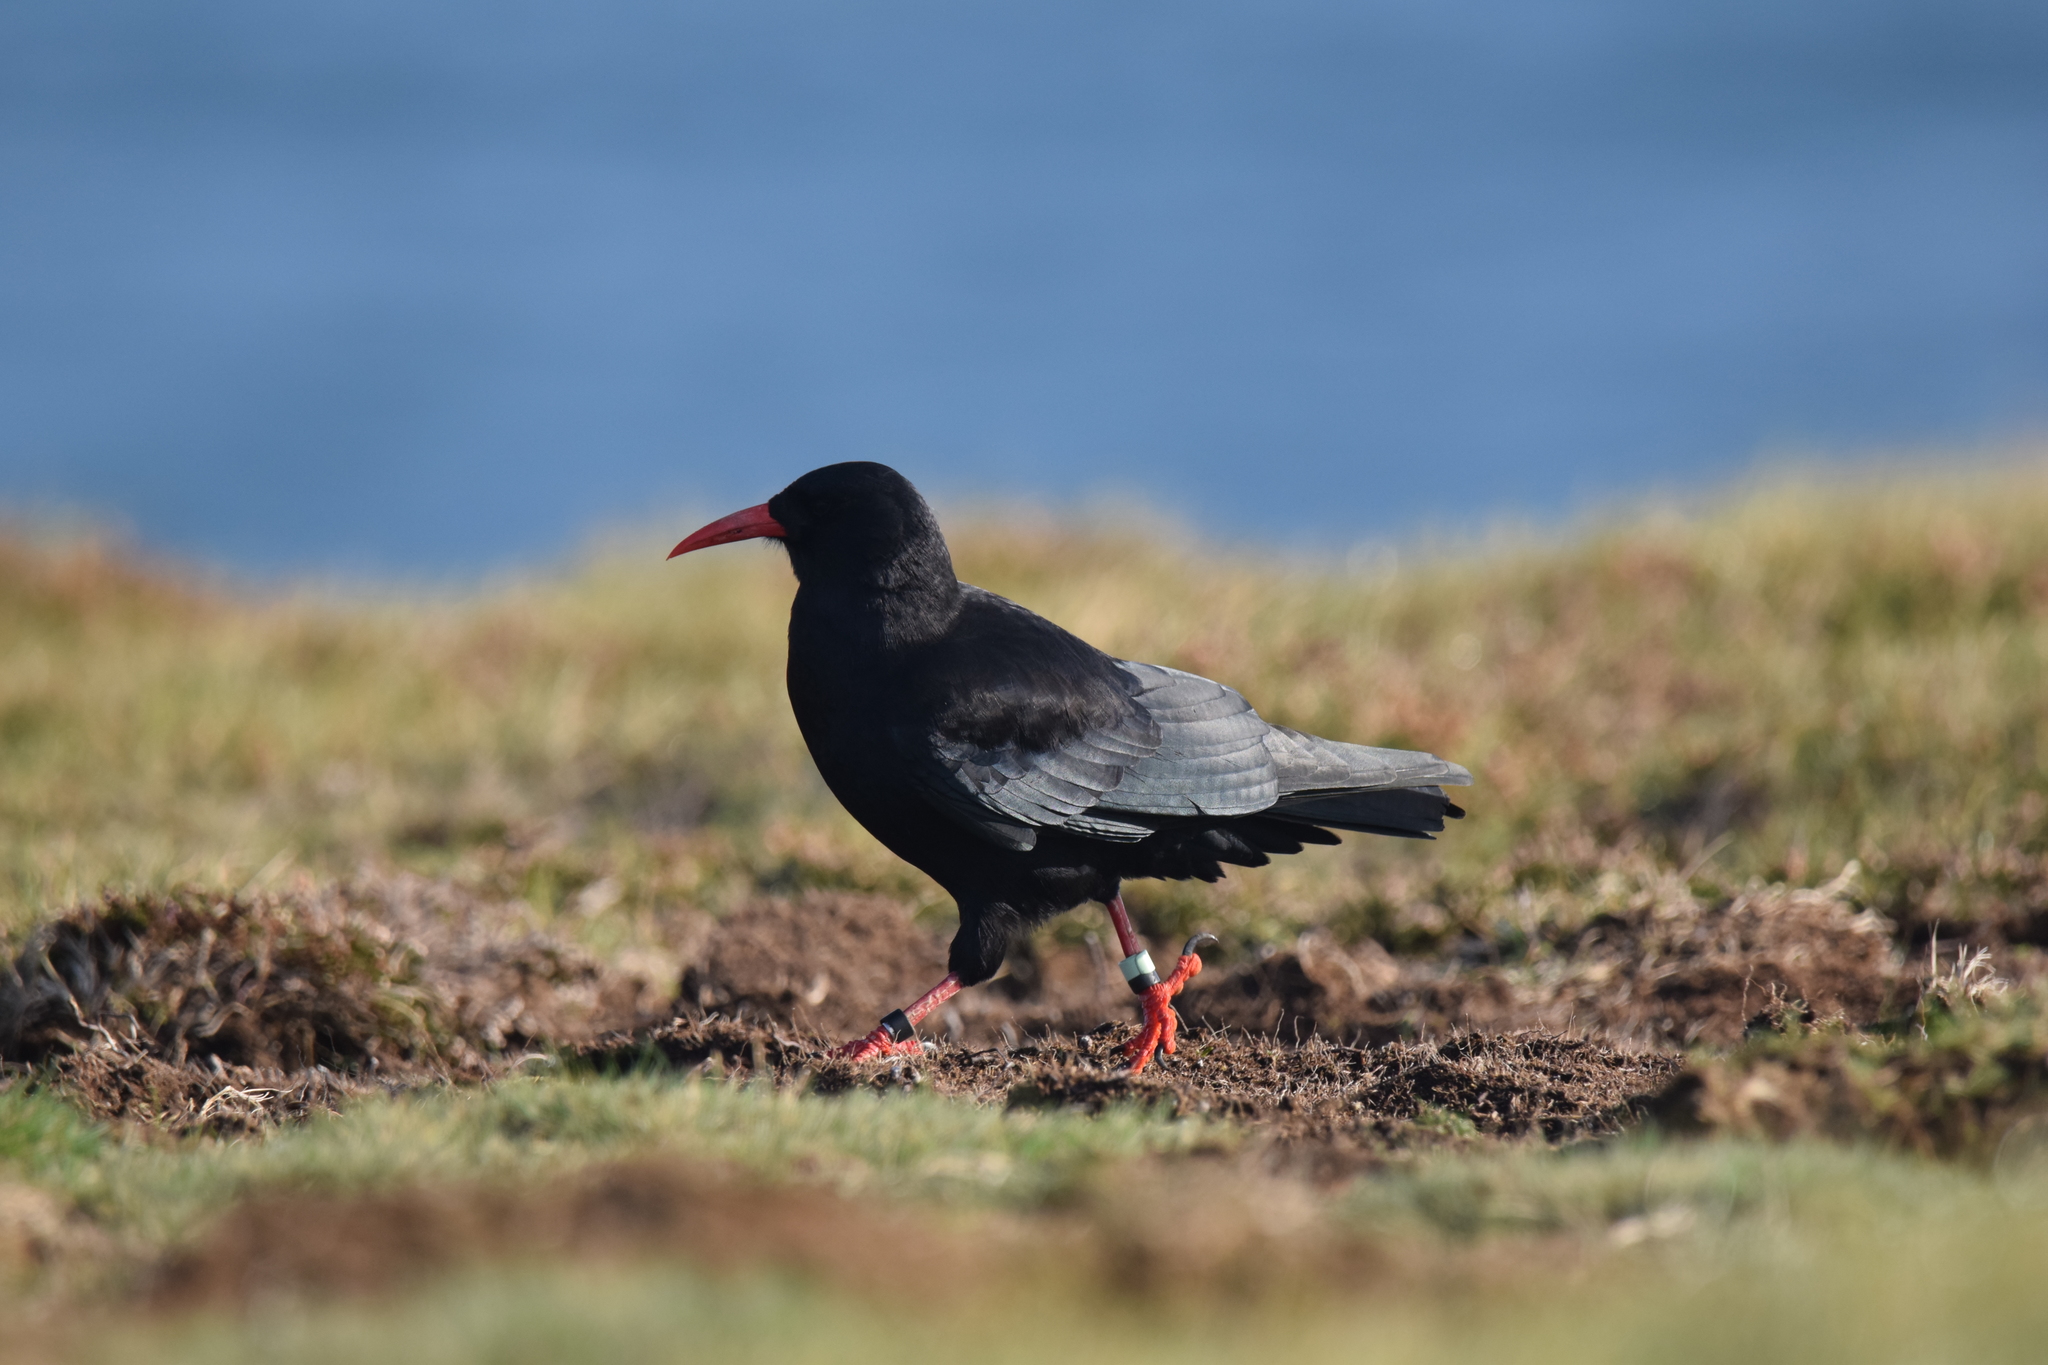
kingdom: Animalia
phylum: Chordata
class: Aves
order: Passeriformes
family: Corvidae
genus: Pyrrhocorax
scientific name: Pyrrhocorax pyrrhocorax
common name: Red-billed chough
